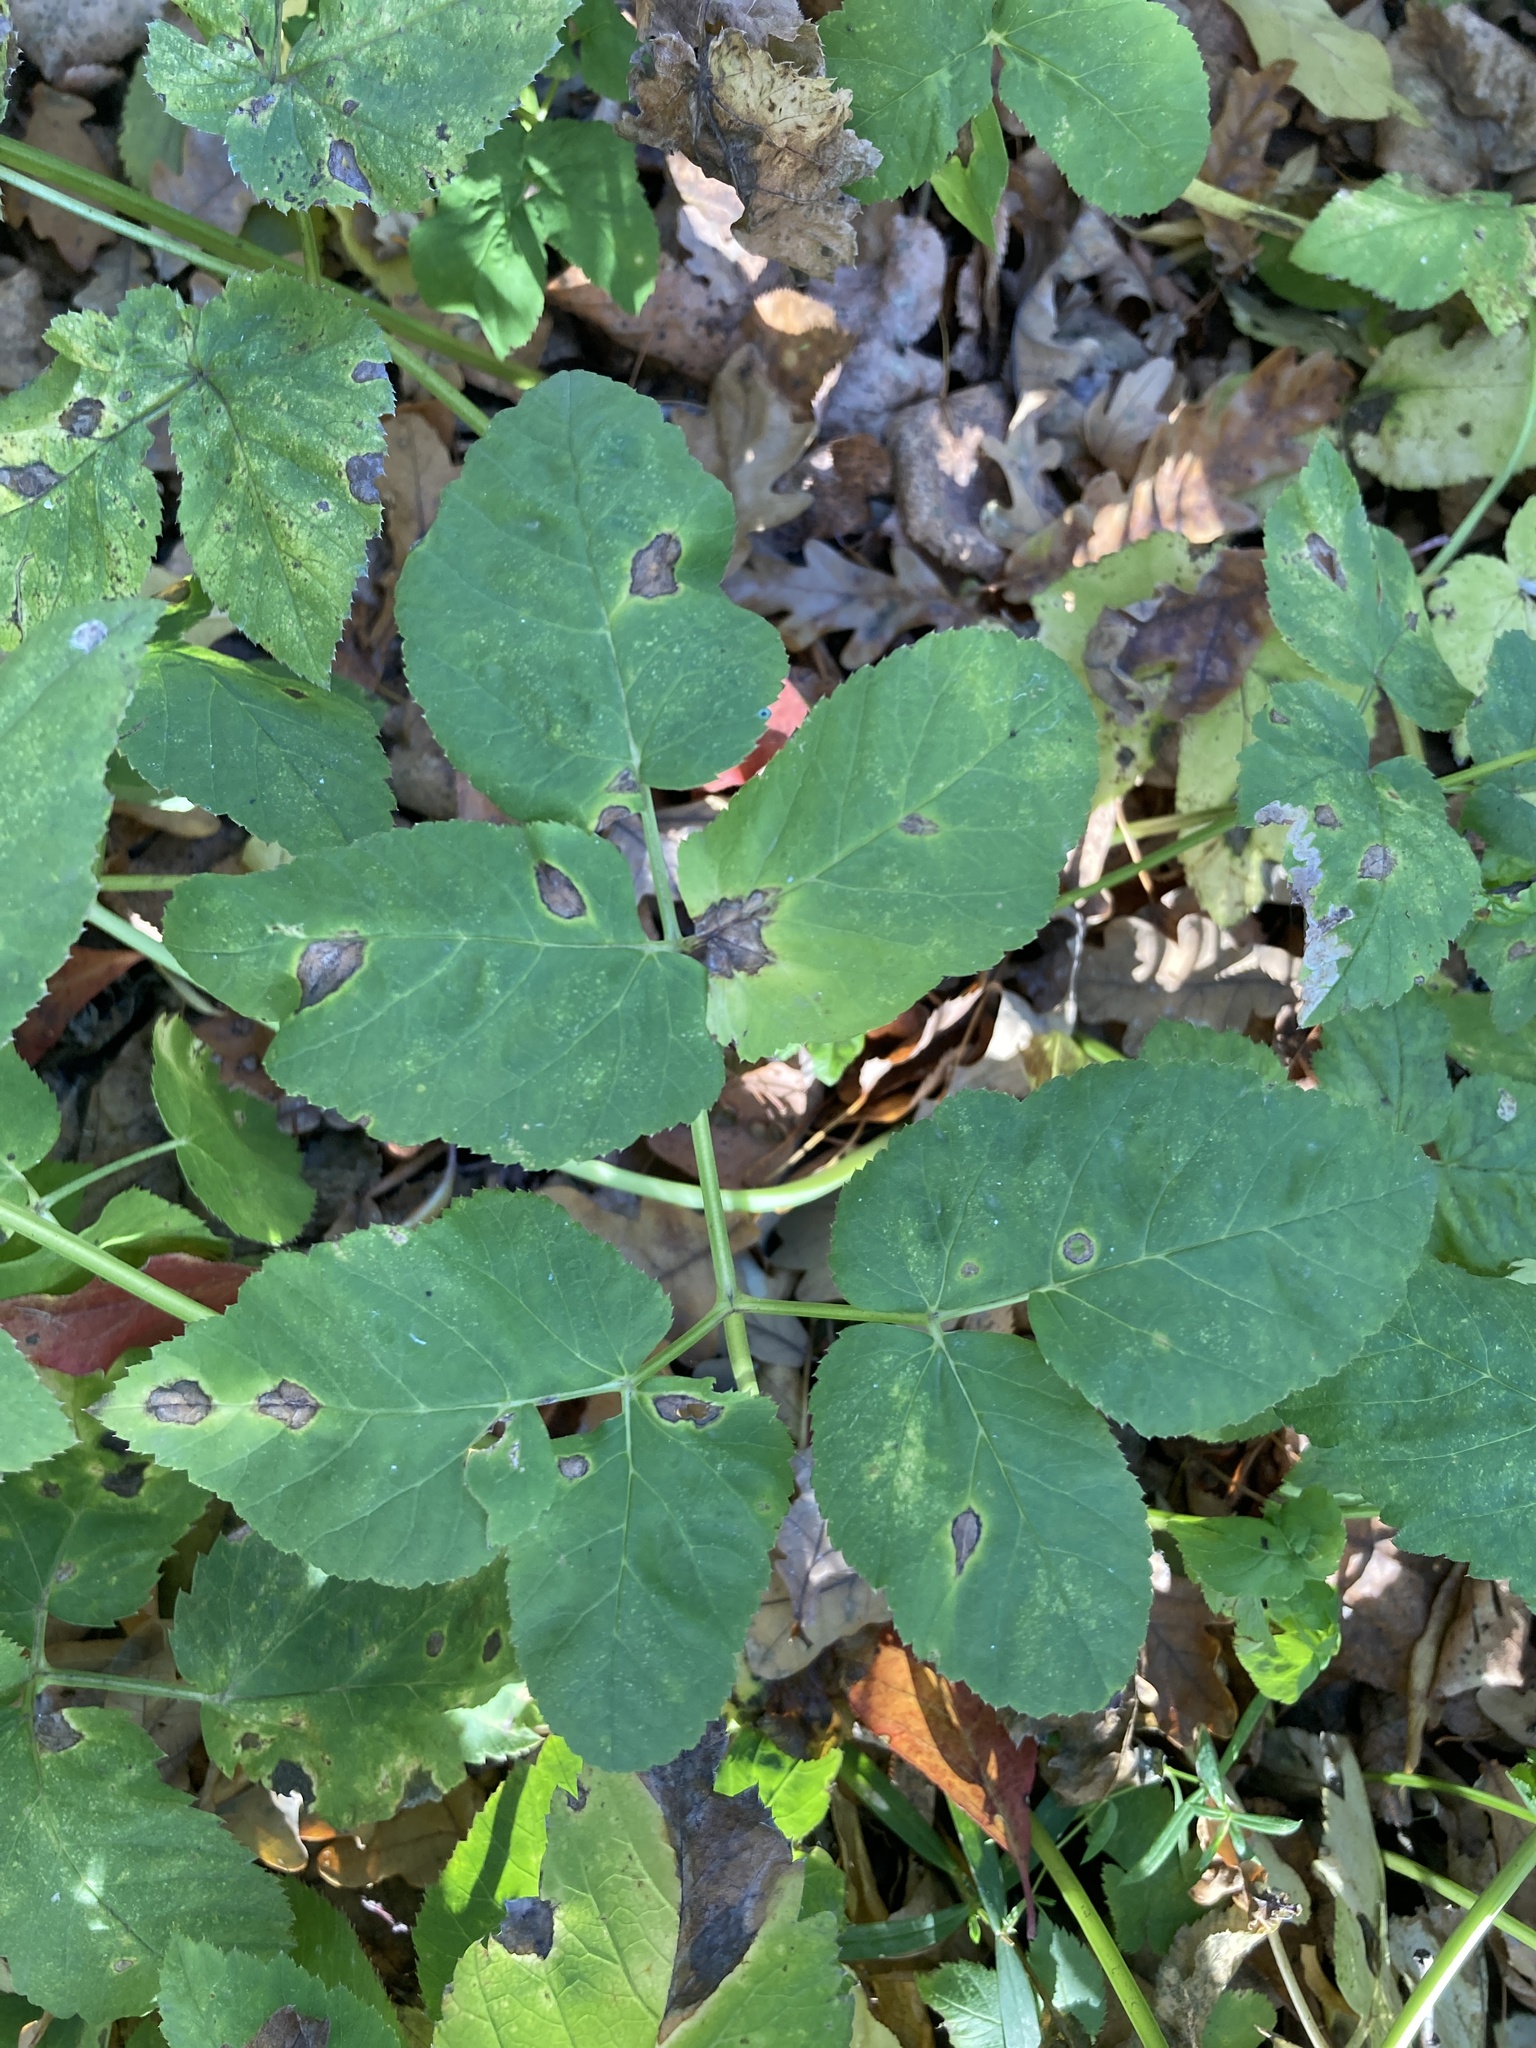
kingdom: Plantae
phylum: Tracheophyta
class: Magnoliopsida
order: Apiales
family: Apiaceae
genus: Aegopodium
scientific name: Aegopodium podagraria
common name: Ground-elder
